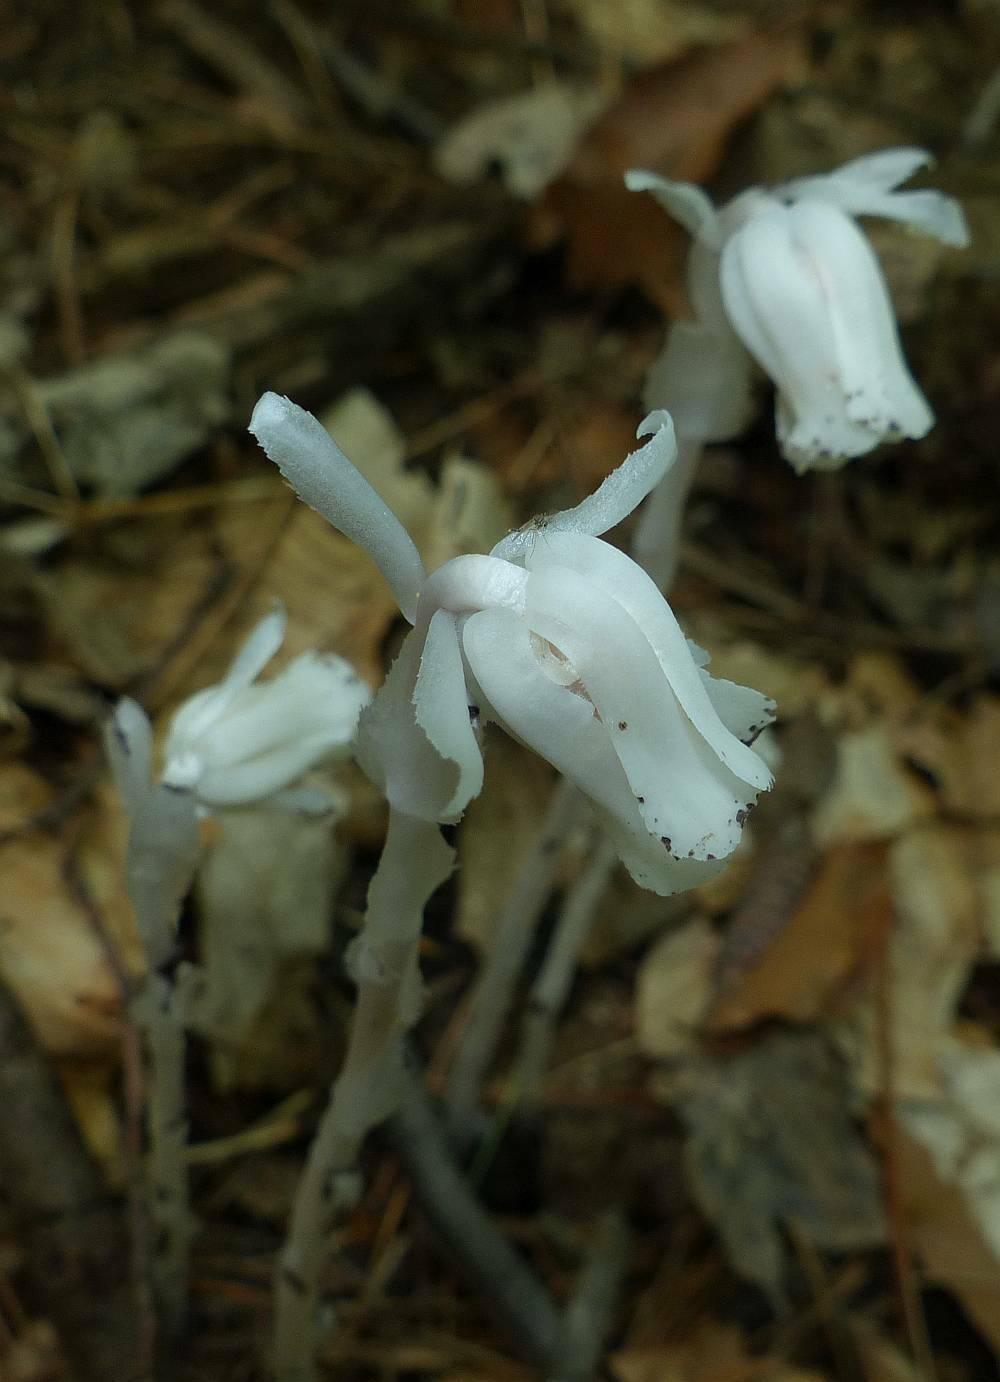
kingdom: Plantae
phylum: Tracheophyta
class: Magnoliopsida
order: Ericales
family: Ericaceae
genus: Monotropa
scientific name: Monotropa uniflora
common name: Convulsion root
